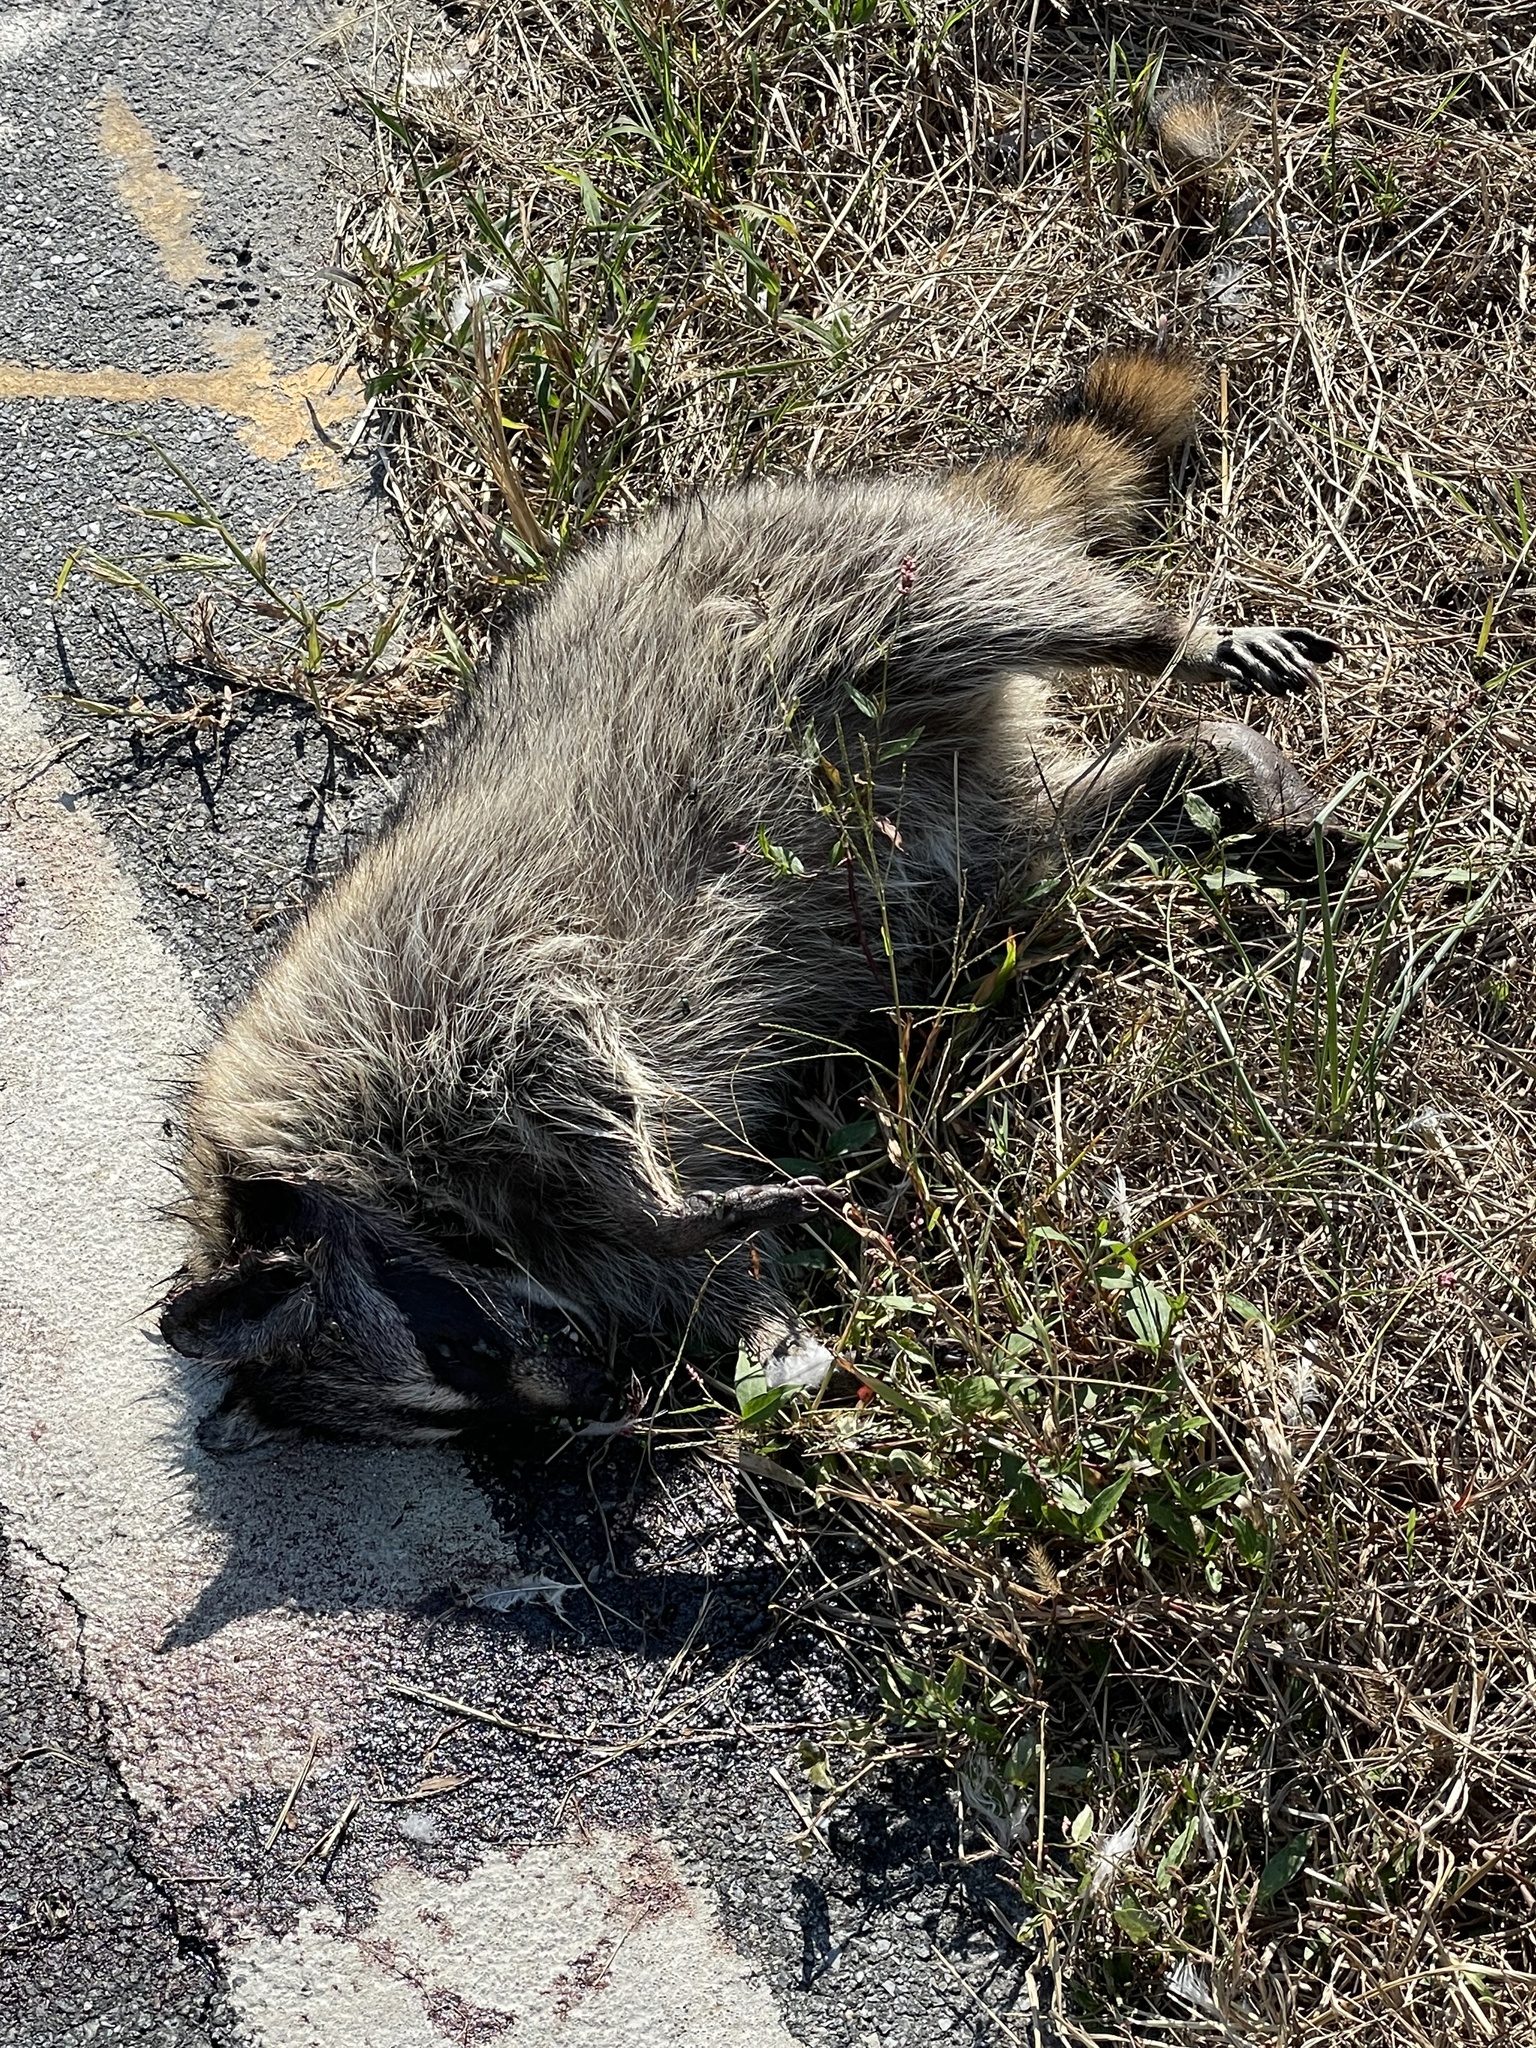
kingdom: Animalia
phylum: Chordata
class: Mammalia
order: Carnivora
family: Procyonidae
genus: Procyon
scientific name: Procyon lotor
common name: Raccoon
